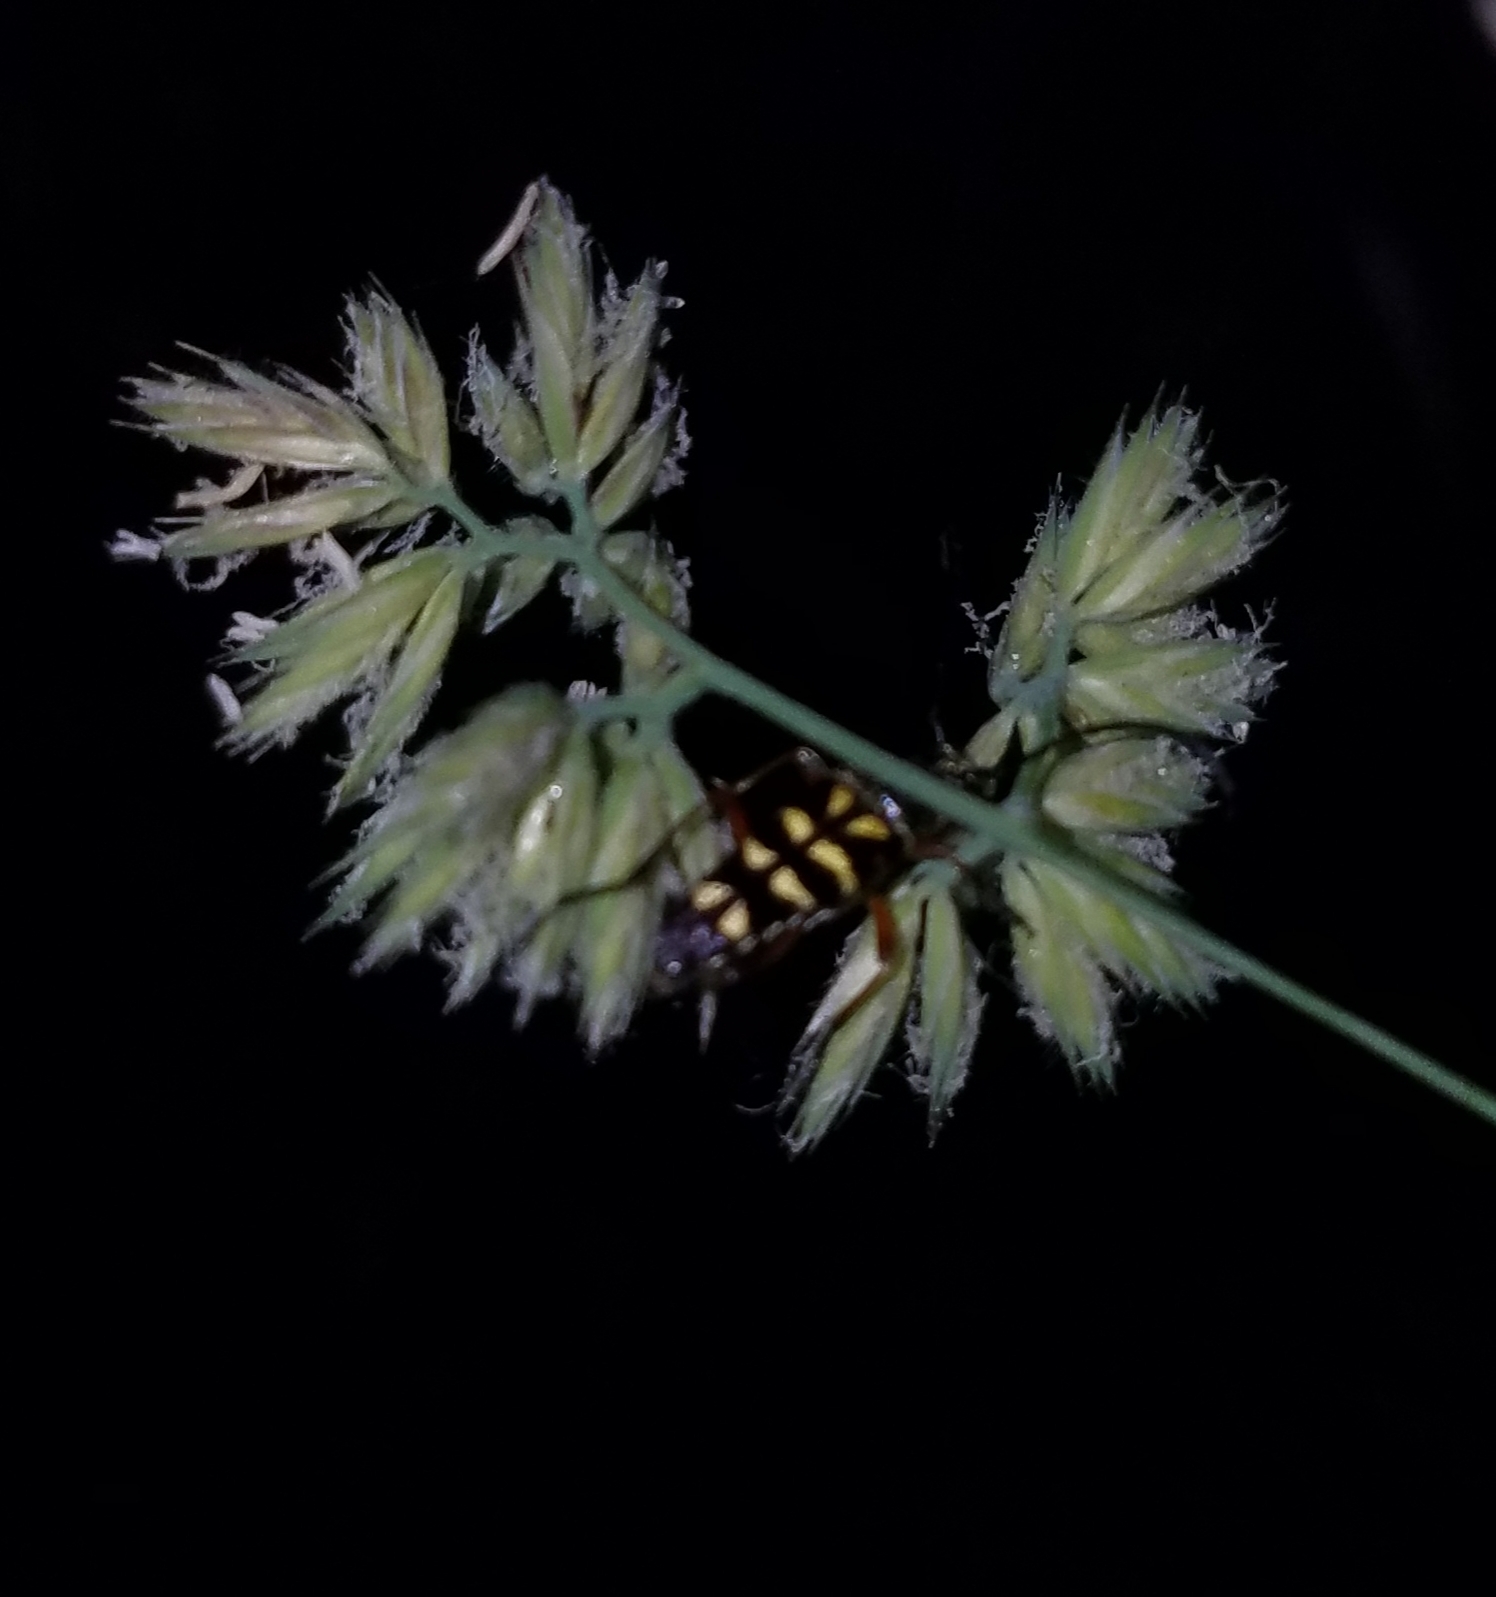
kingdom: Animalia
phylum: Arthropoda
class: Insecta
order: Coleoptera
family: Cerambycidae
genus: Typocerus
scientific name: Typocerus zebra
